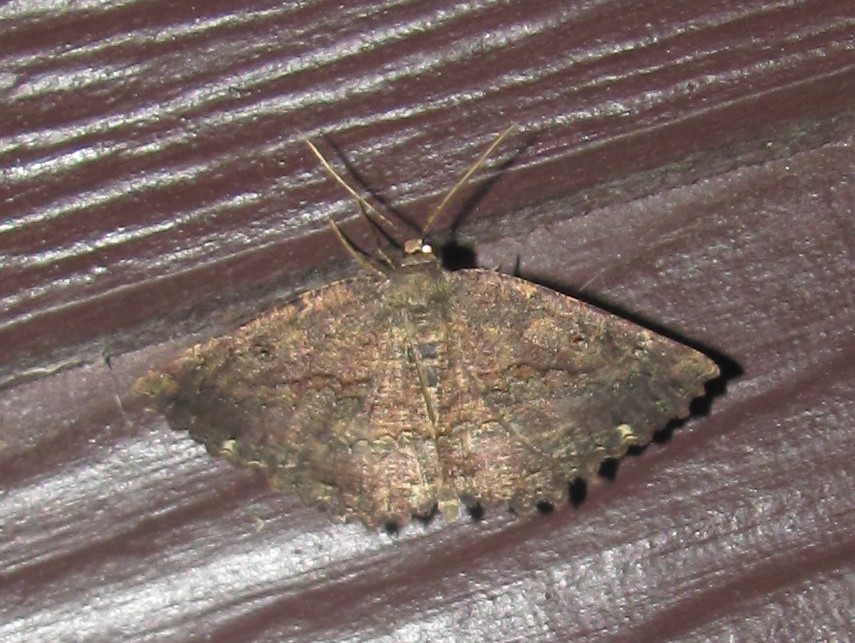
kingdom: Animalia
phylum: Arthropoda
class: Insecta
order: Lepidoptera
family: Geometridae
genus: Gellonia
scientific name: Gellonia pannularia
